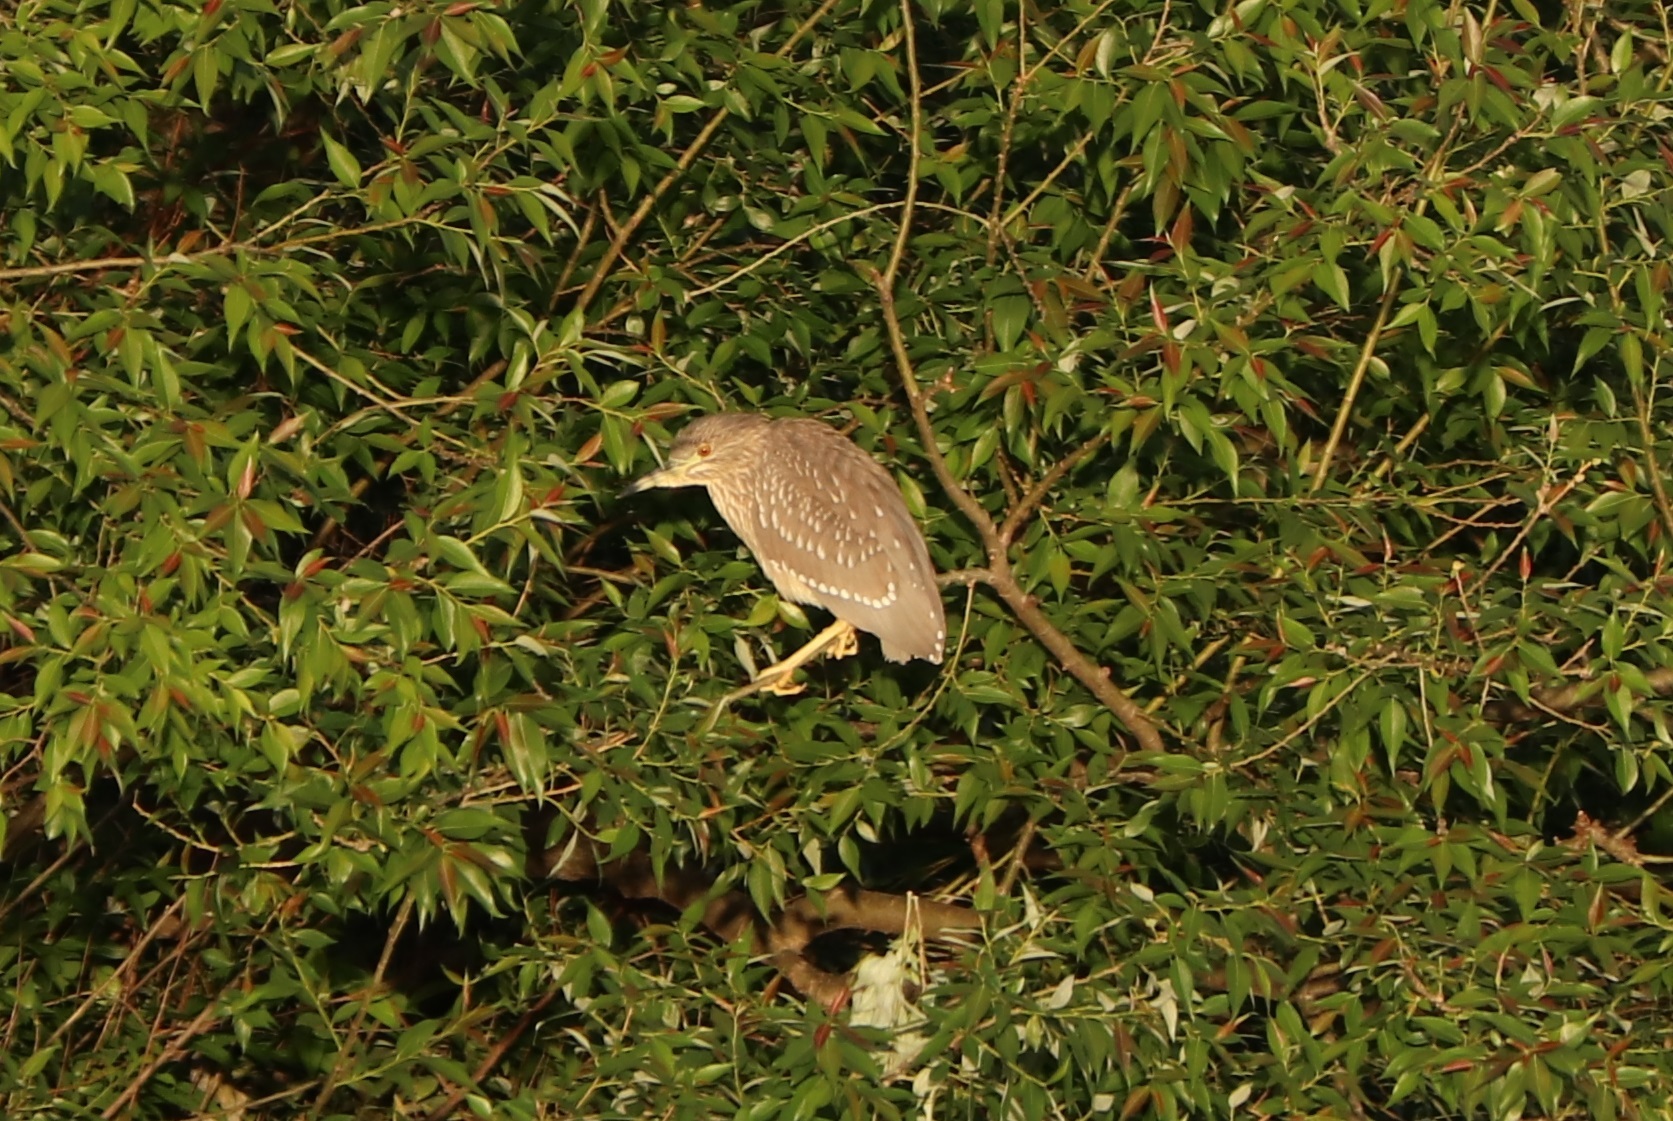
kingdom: Animalia
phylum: Chordata
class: Aves
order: Pelecaniformes
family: Ardeidae
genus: Nycticorax
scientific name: Nycticorax nycticorax
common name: Black-crowned night heron
